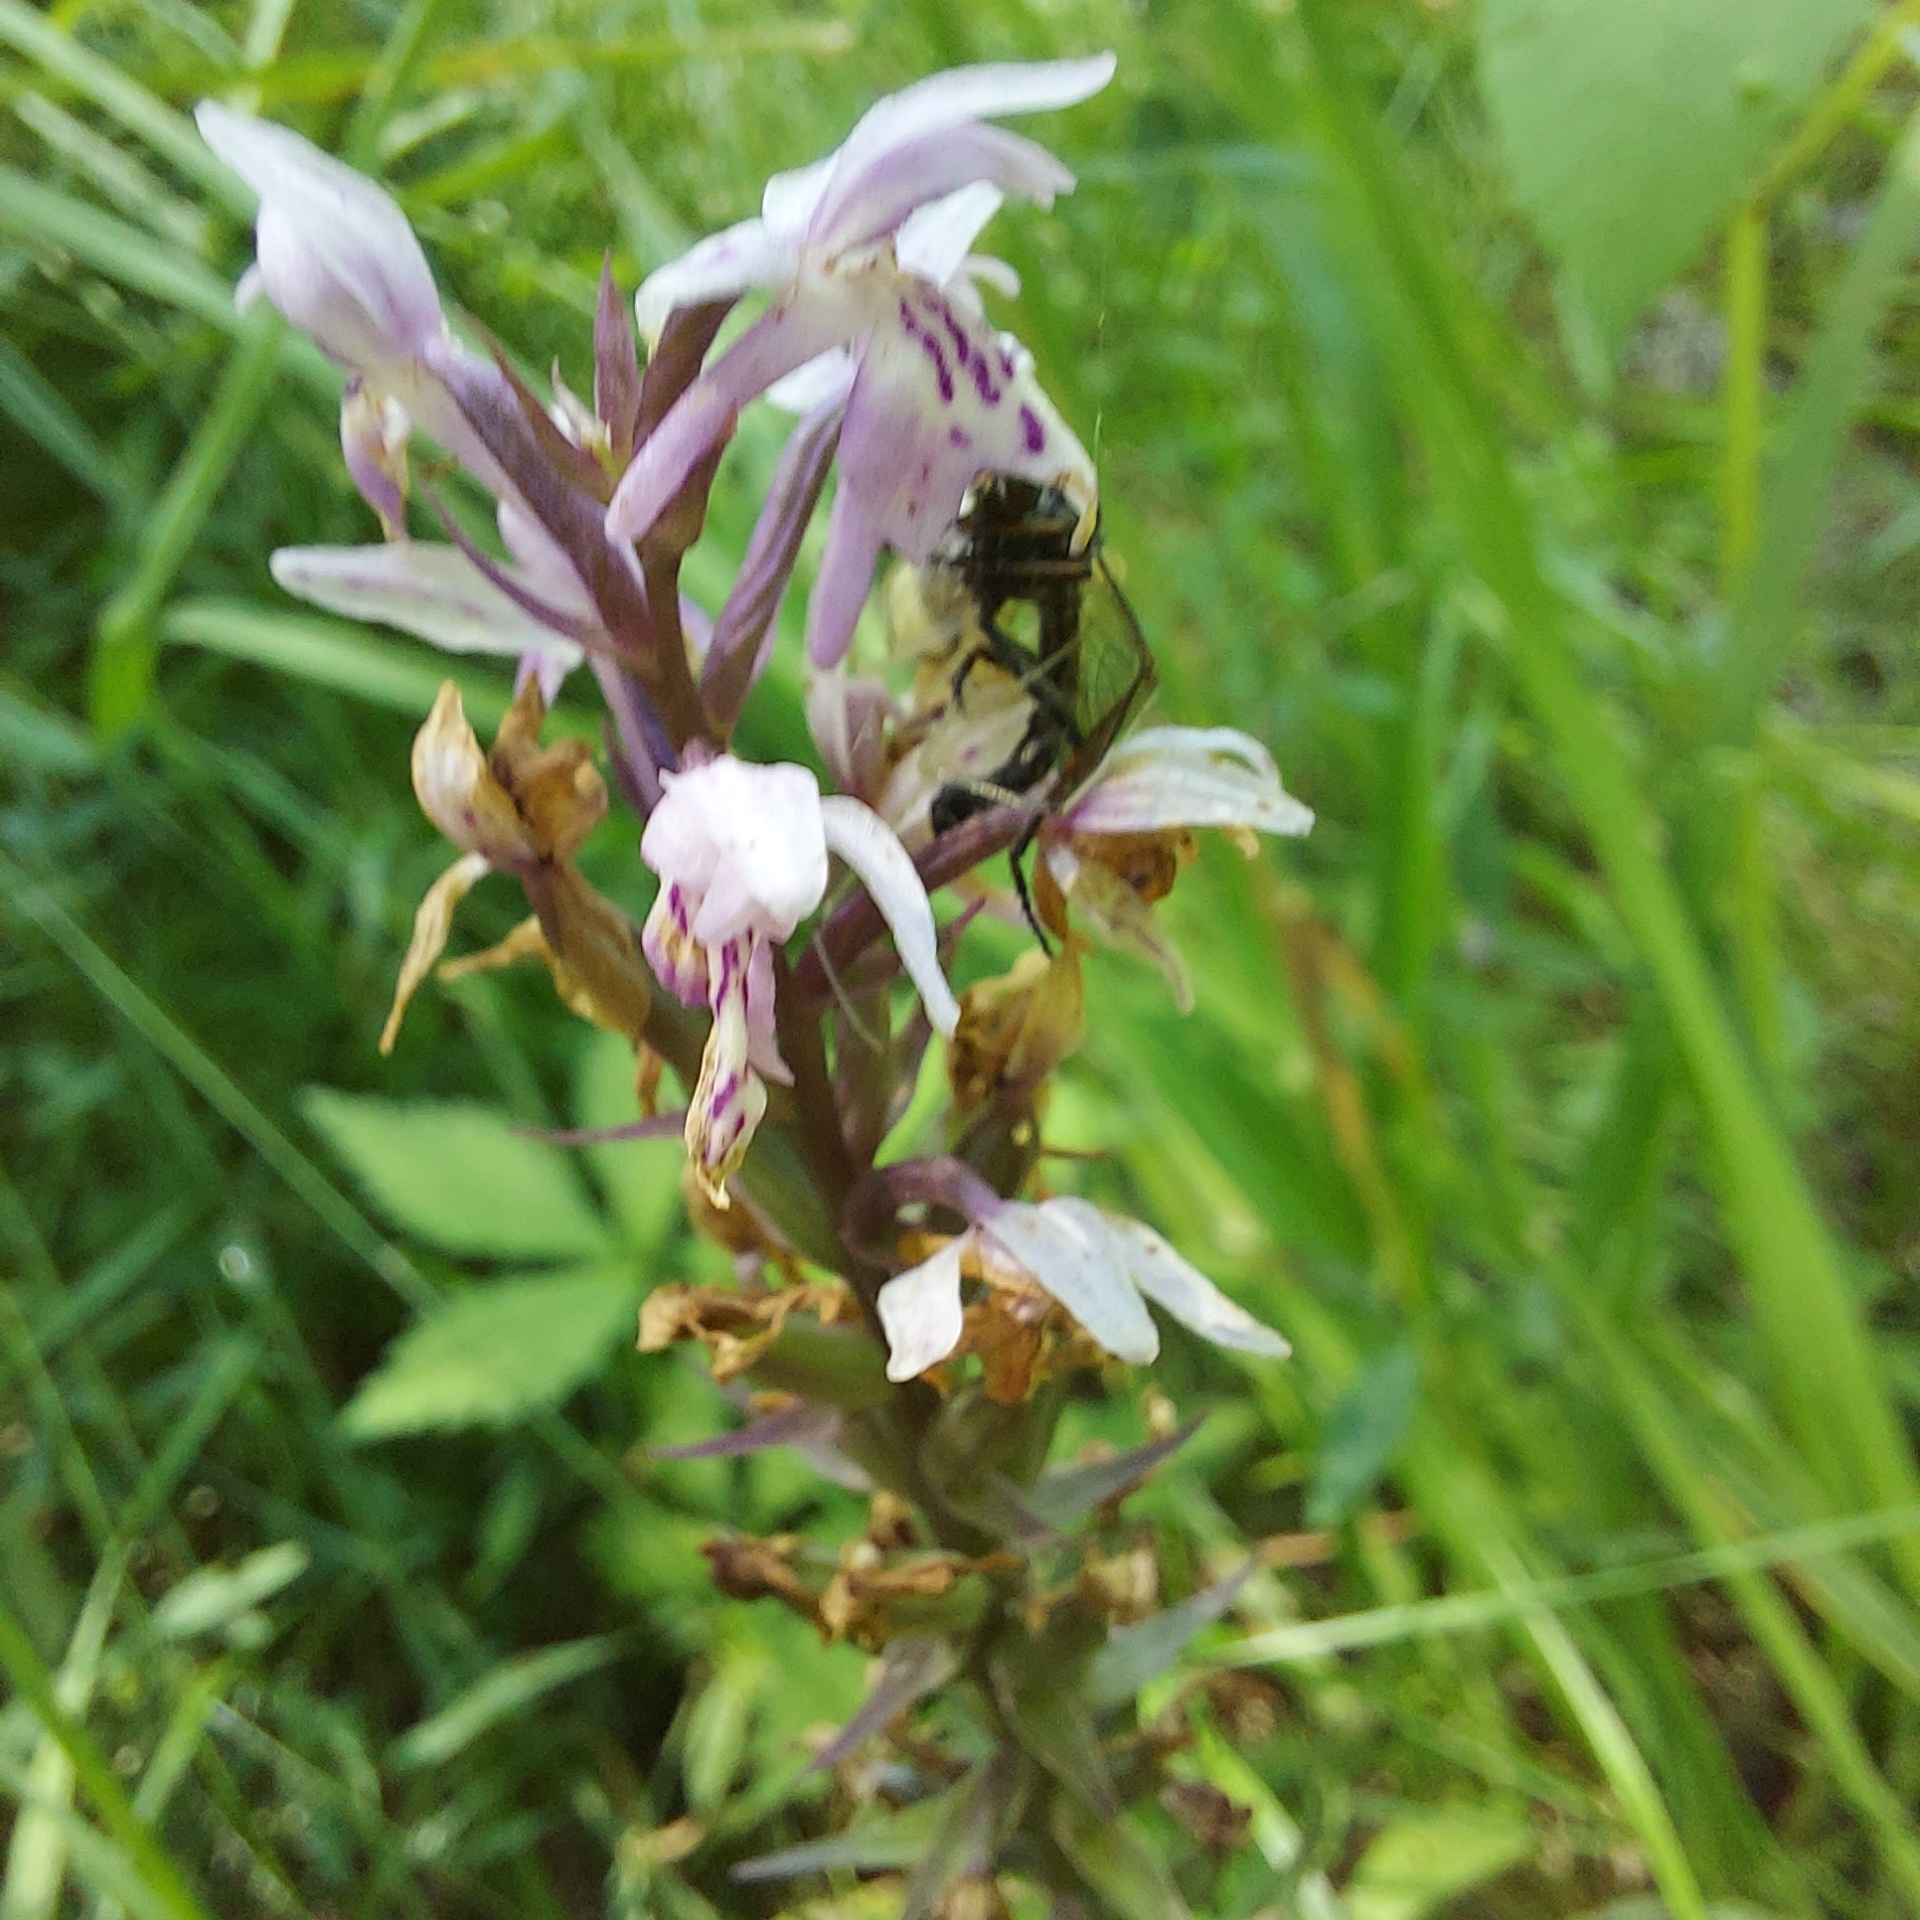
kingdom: Plantae
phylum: Tracheophyta
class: Liliopsida
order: Asparagales
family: Orchidaceae
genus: Dactylorhiza
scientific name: Dactylorhiza maculata
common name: Heath spotted-orchid
